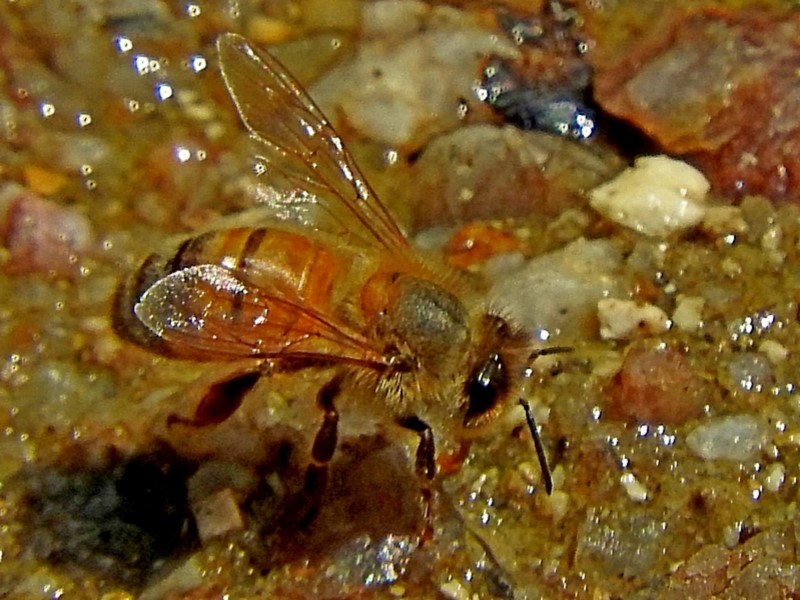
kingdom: Animalia
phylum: Arthropoda
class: Insecta
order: Hymenoptera
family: Apidae
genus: Apis
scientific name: Apis mellifera
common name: Honey bee
